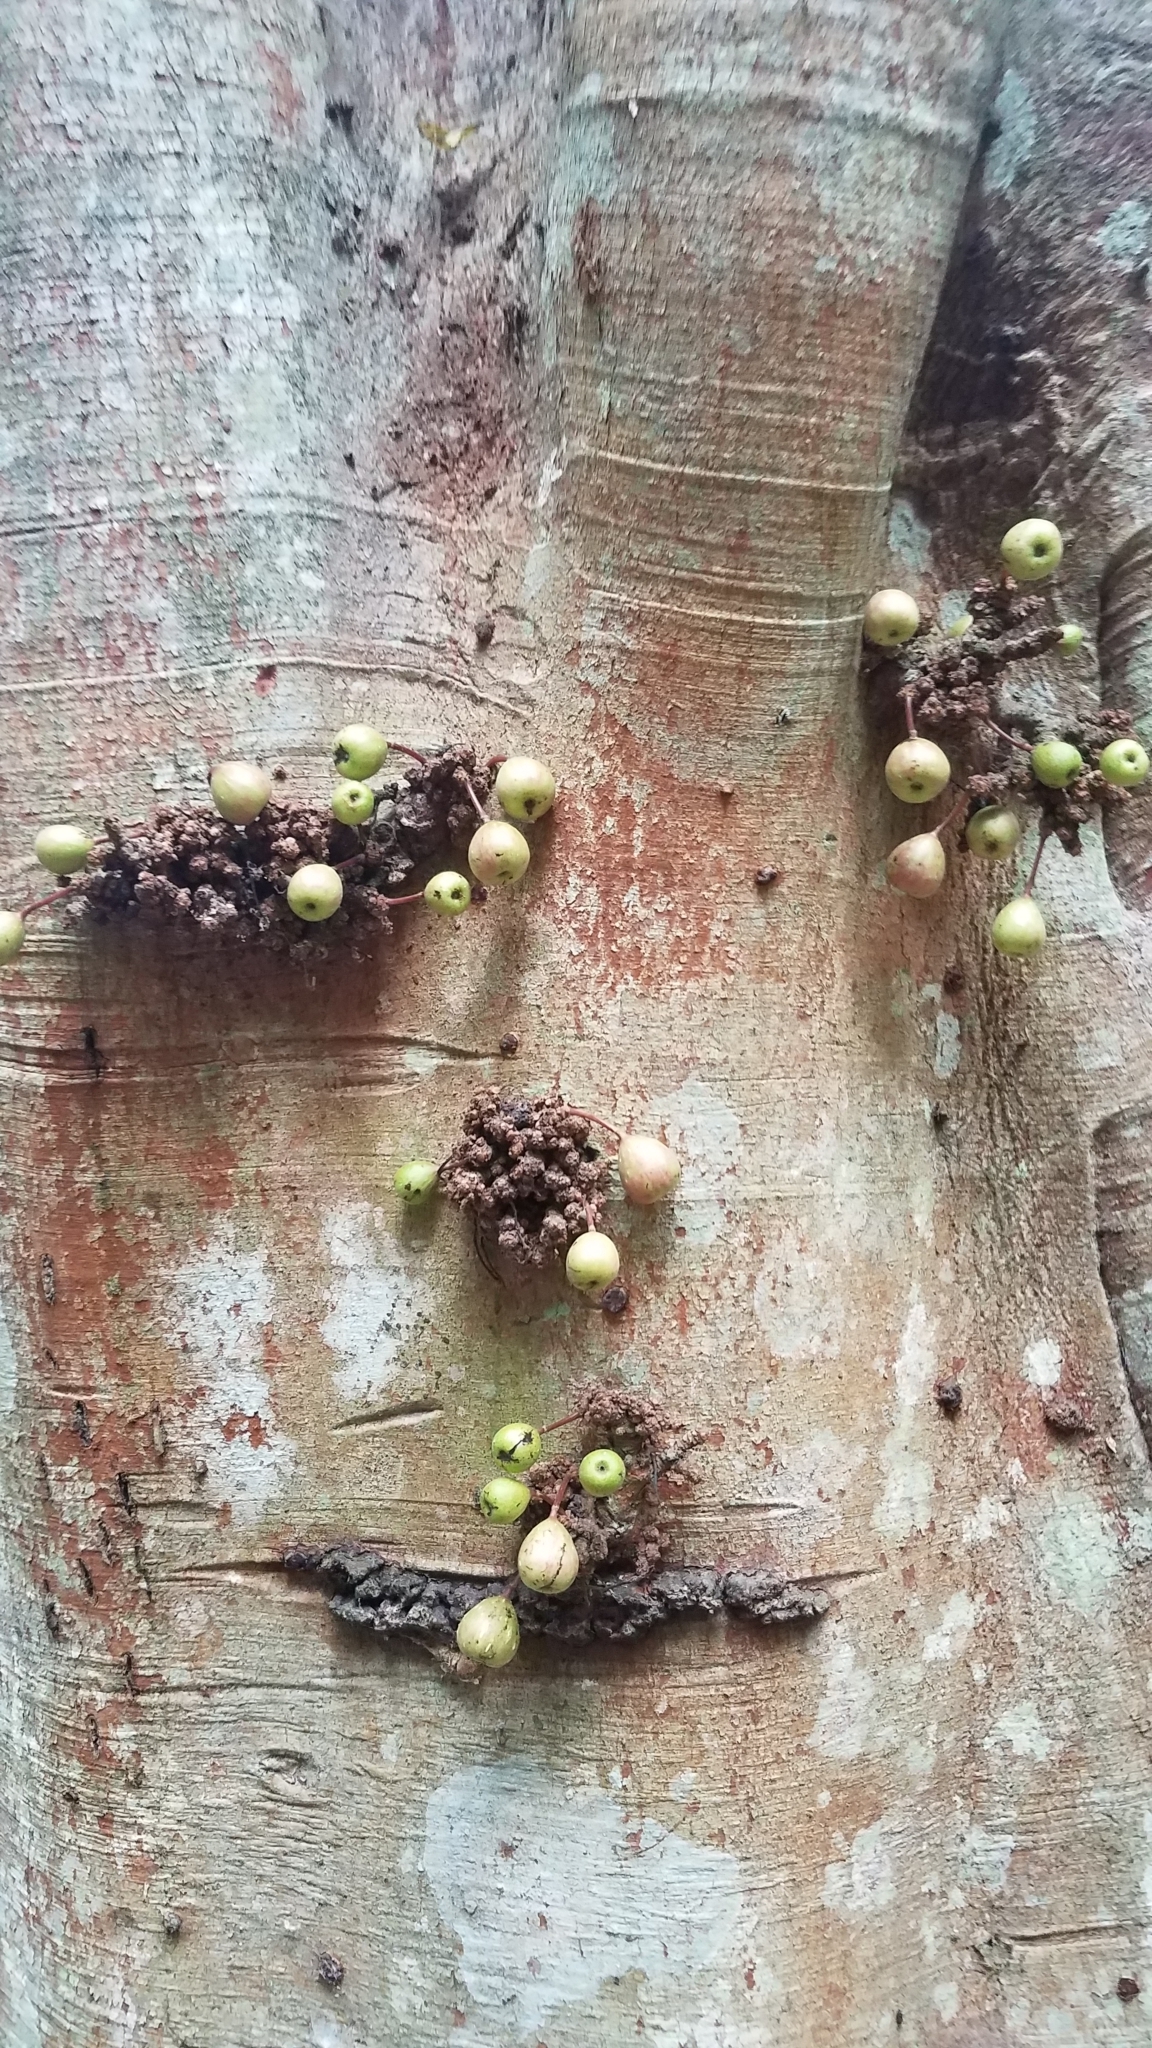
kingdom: Plantae
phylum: Tracheophyta
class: Magnoliopsida
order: Rosales
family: Moraceae
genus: Ficus
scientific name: Ficus fistulosa
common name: Figs
